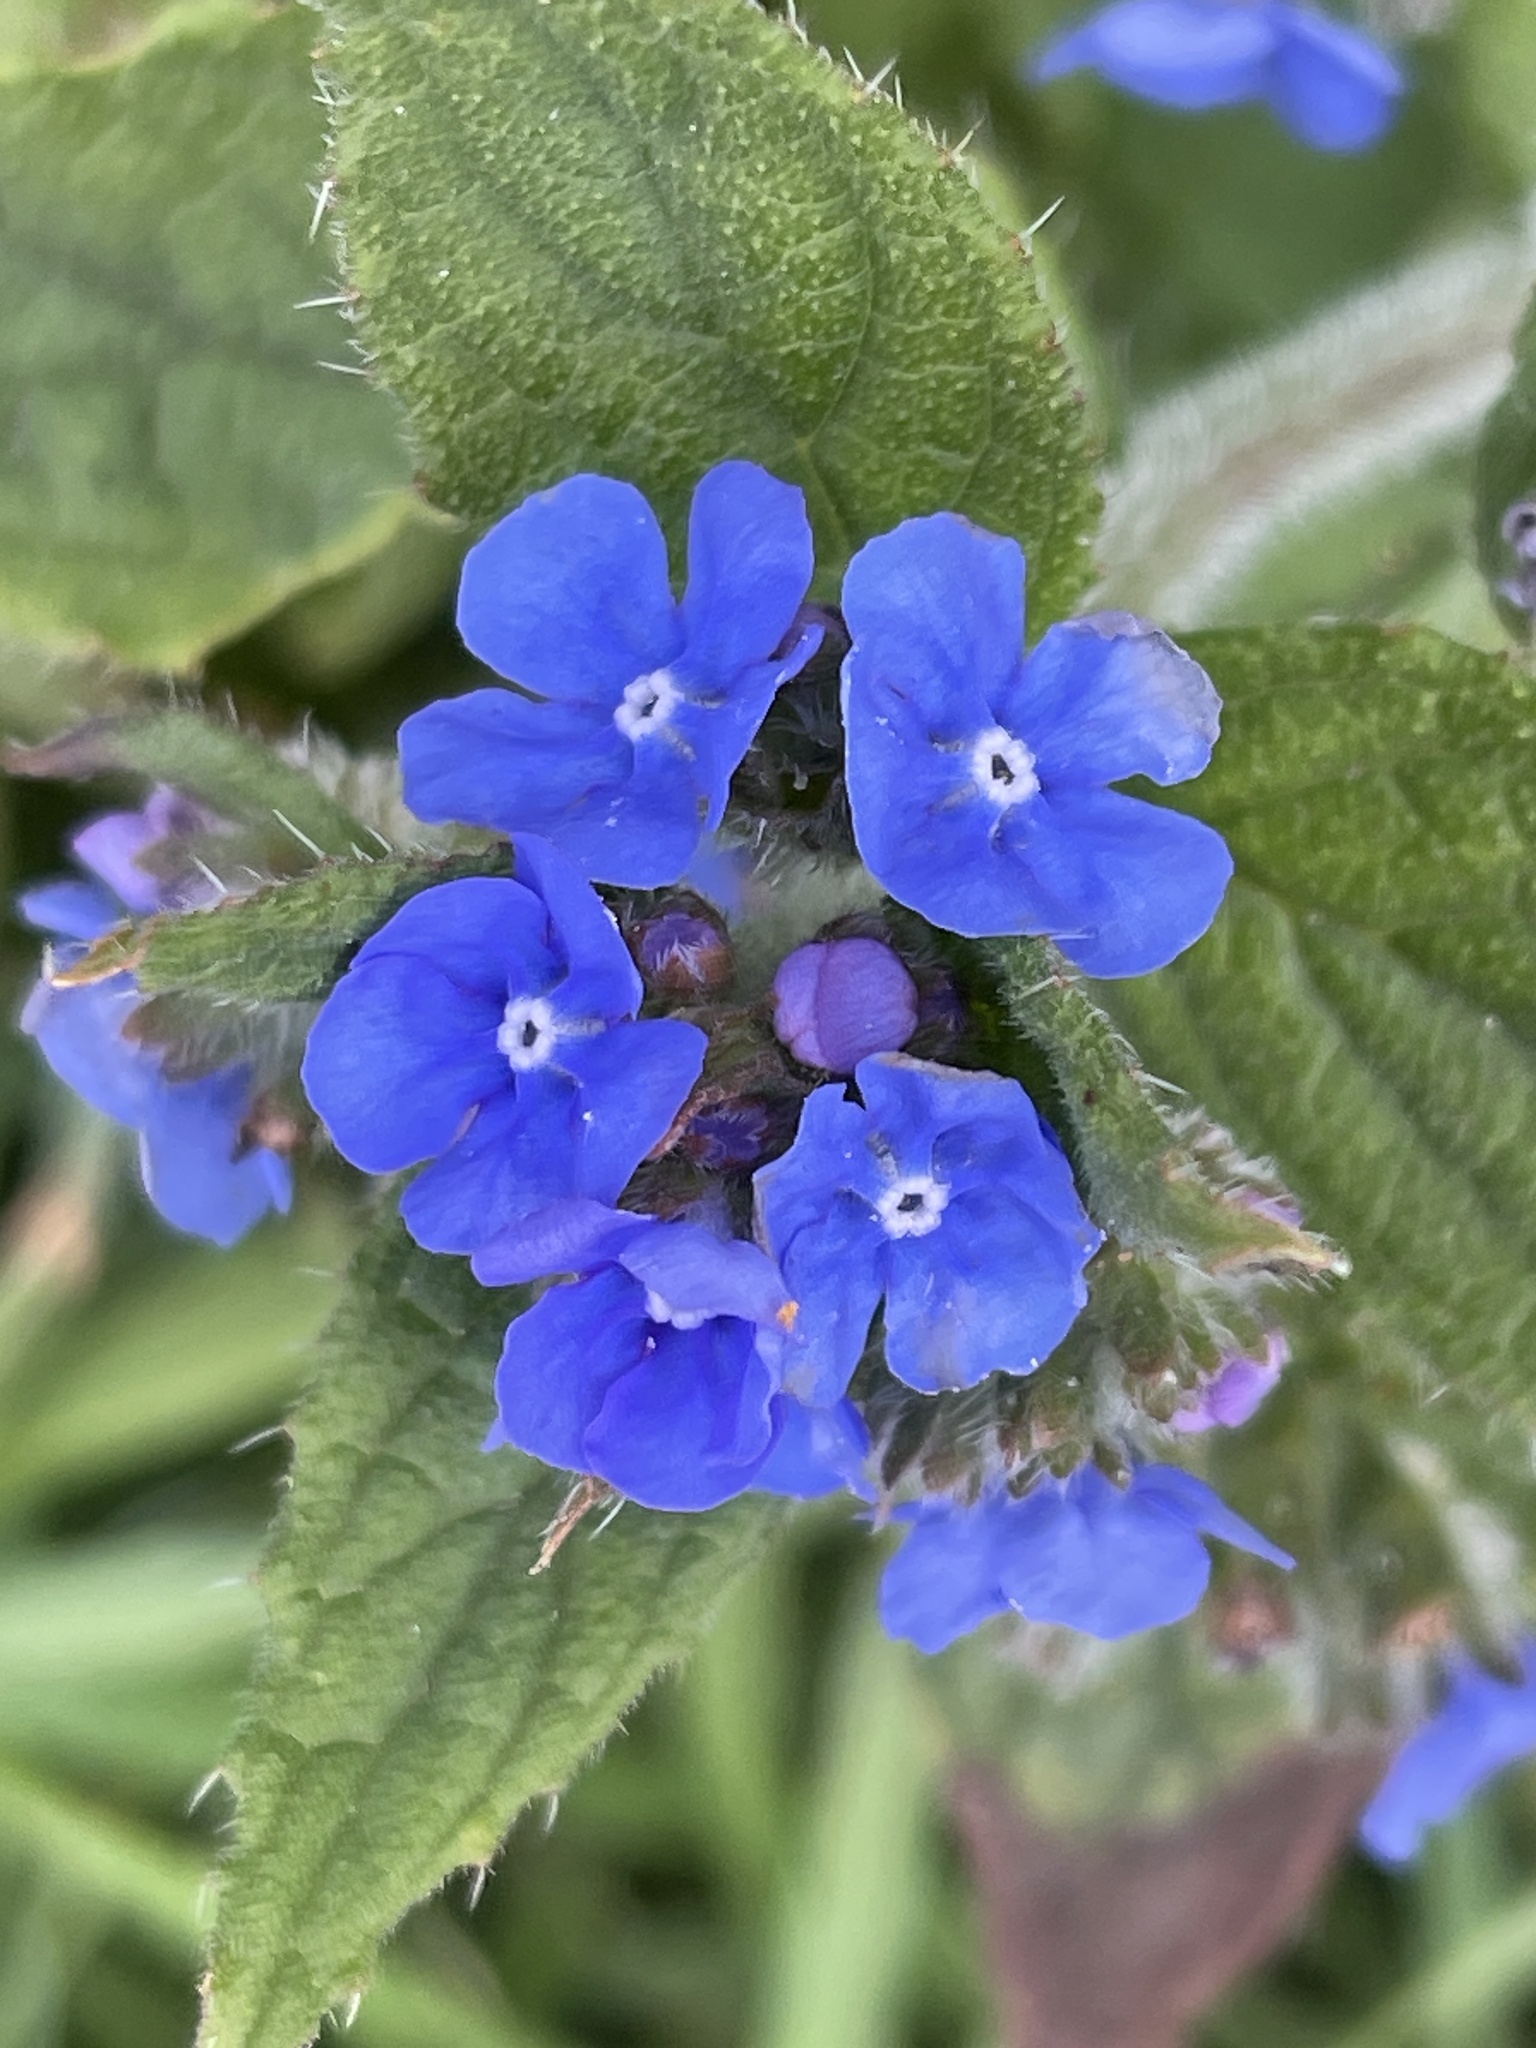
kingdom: Plantae
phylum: Tracheophyta
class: Magnoliopsida
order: Boraginales
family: Boraginaceae
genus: Pentaglottis
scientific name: Pentaglottis sempervirens
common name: Green alkanet
